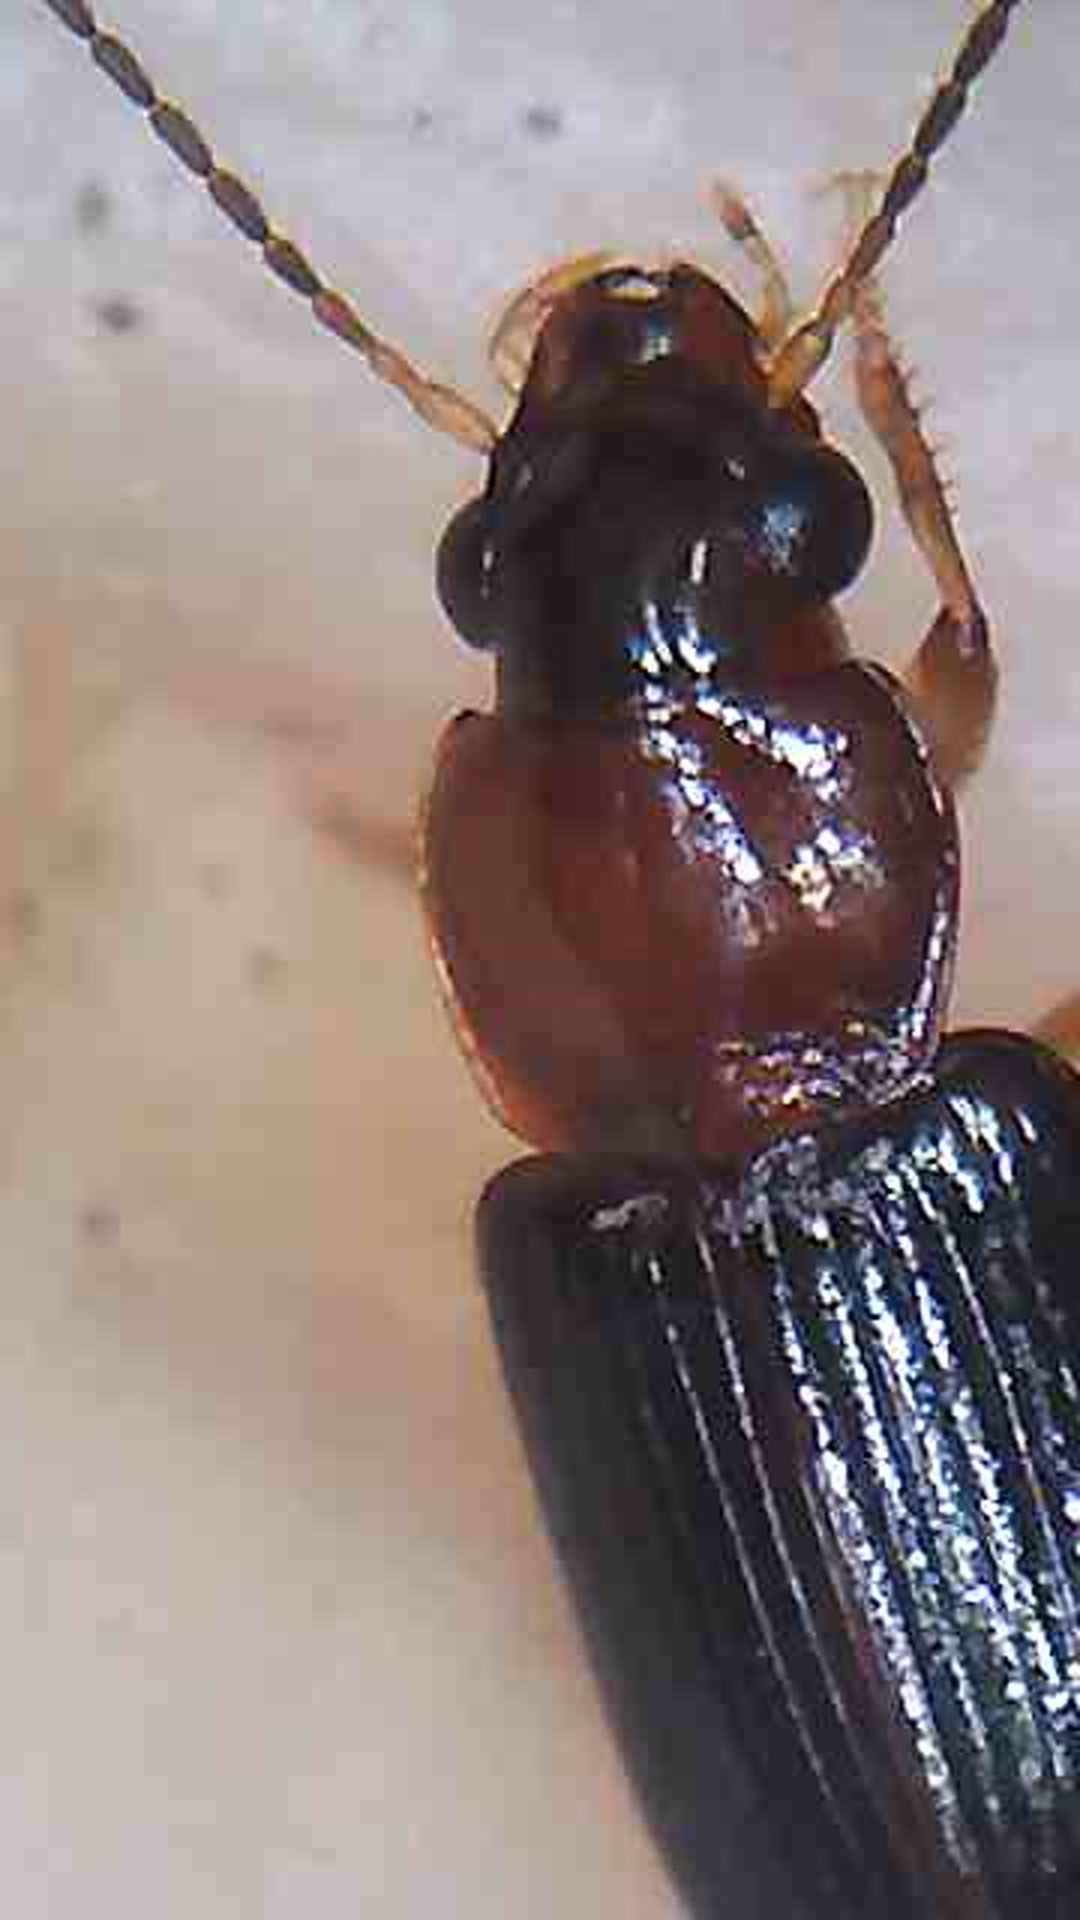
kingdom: Animalia
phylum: Arthropoda
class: Insecta
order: Coleoptera
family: Carabidae
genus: Lecanomerus
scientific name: Lecanomerus atriceps
